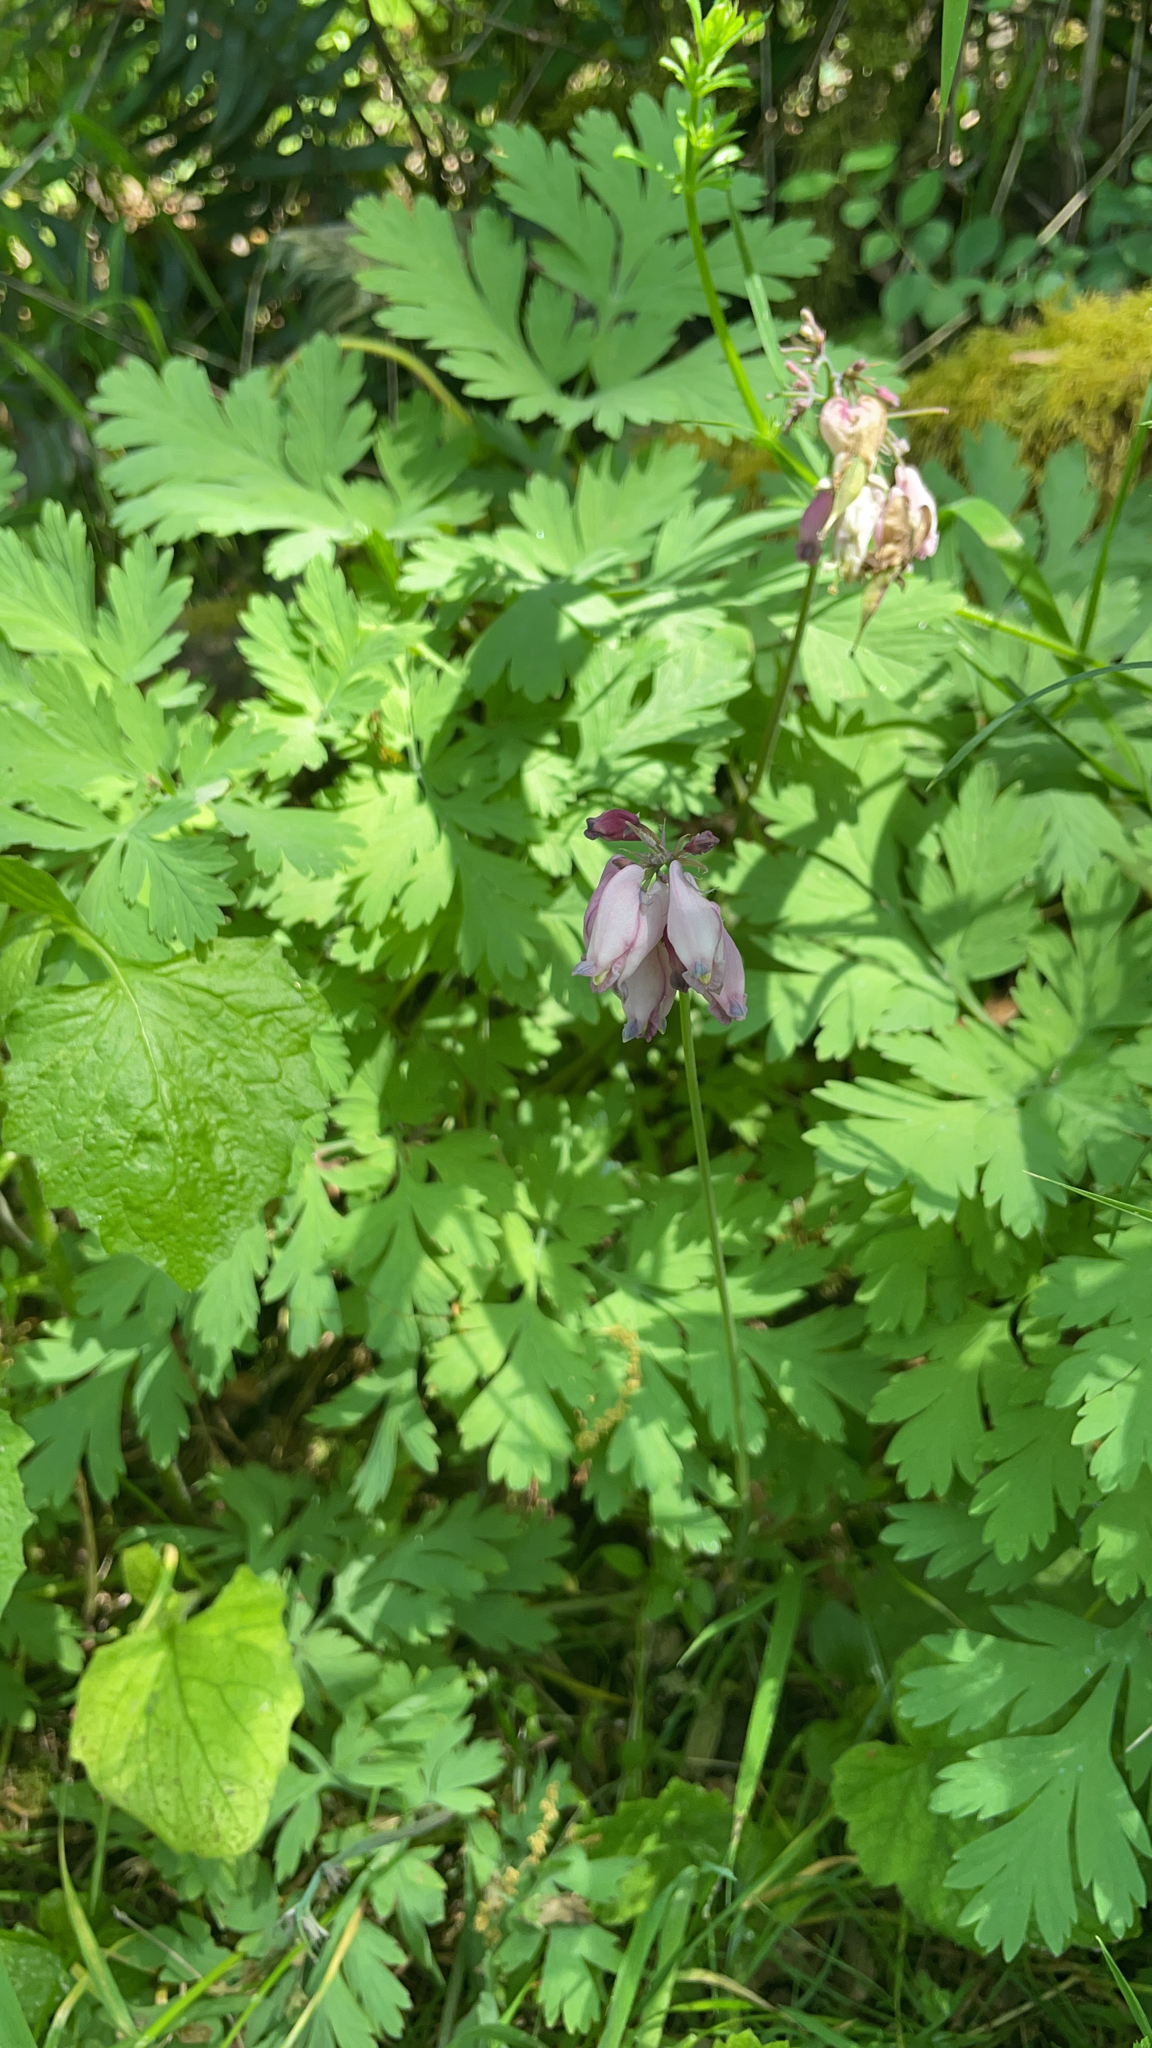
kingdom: Plantae
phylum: Tracheophyta
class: Magnoliopsida
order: Ranunculales
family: Papaveraceae
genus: Dicentra
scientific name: Dicentra formosa
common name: Bleeding-heart
